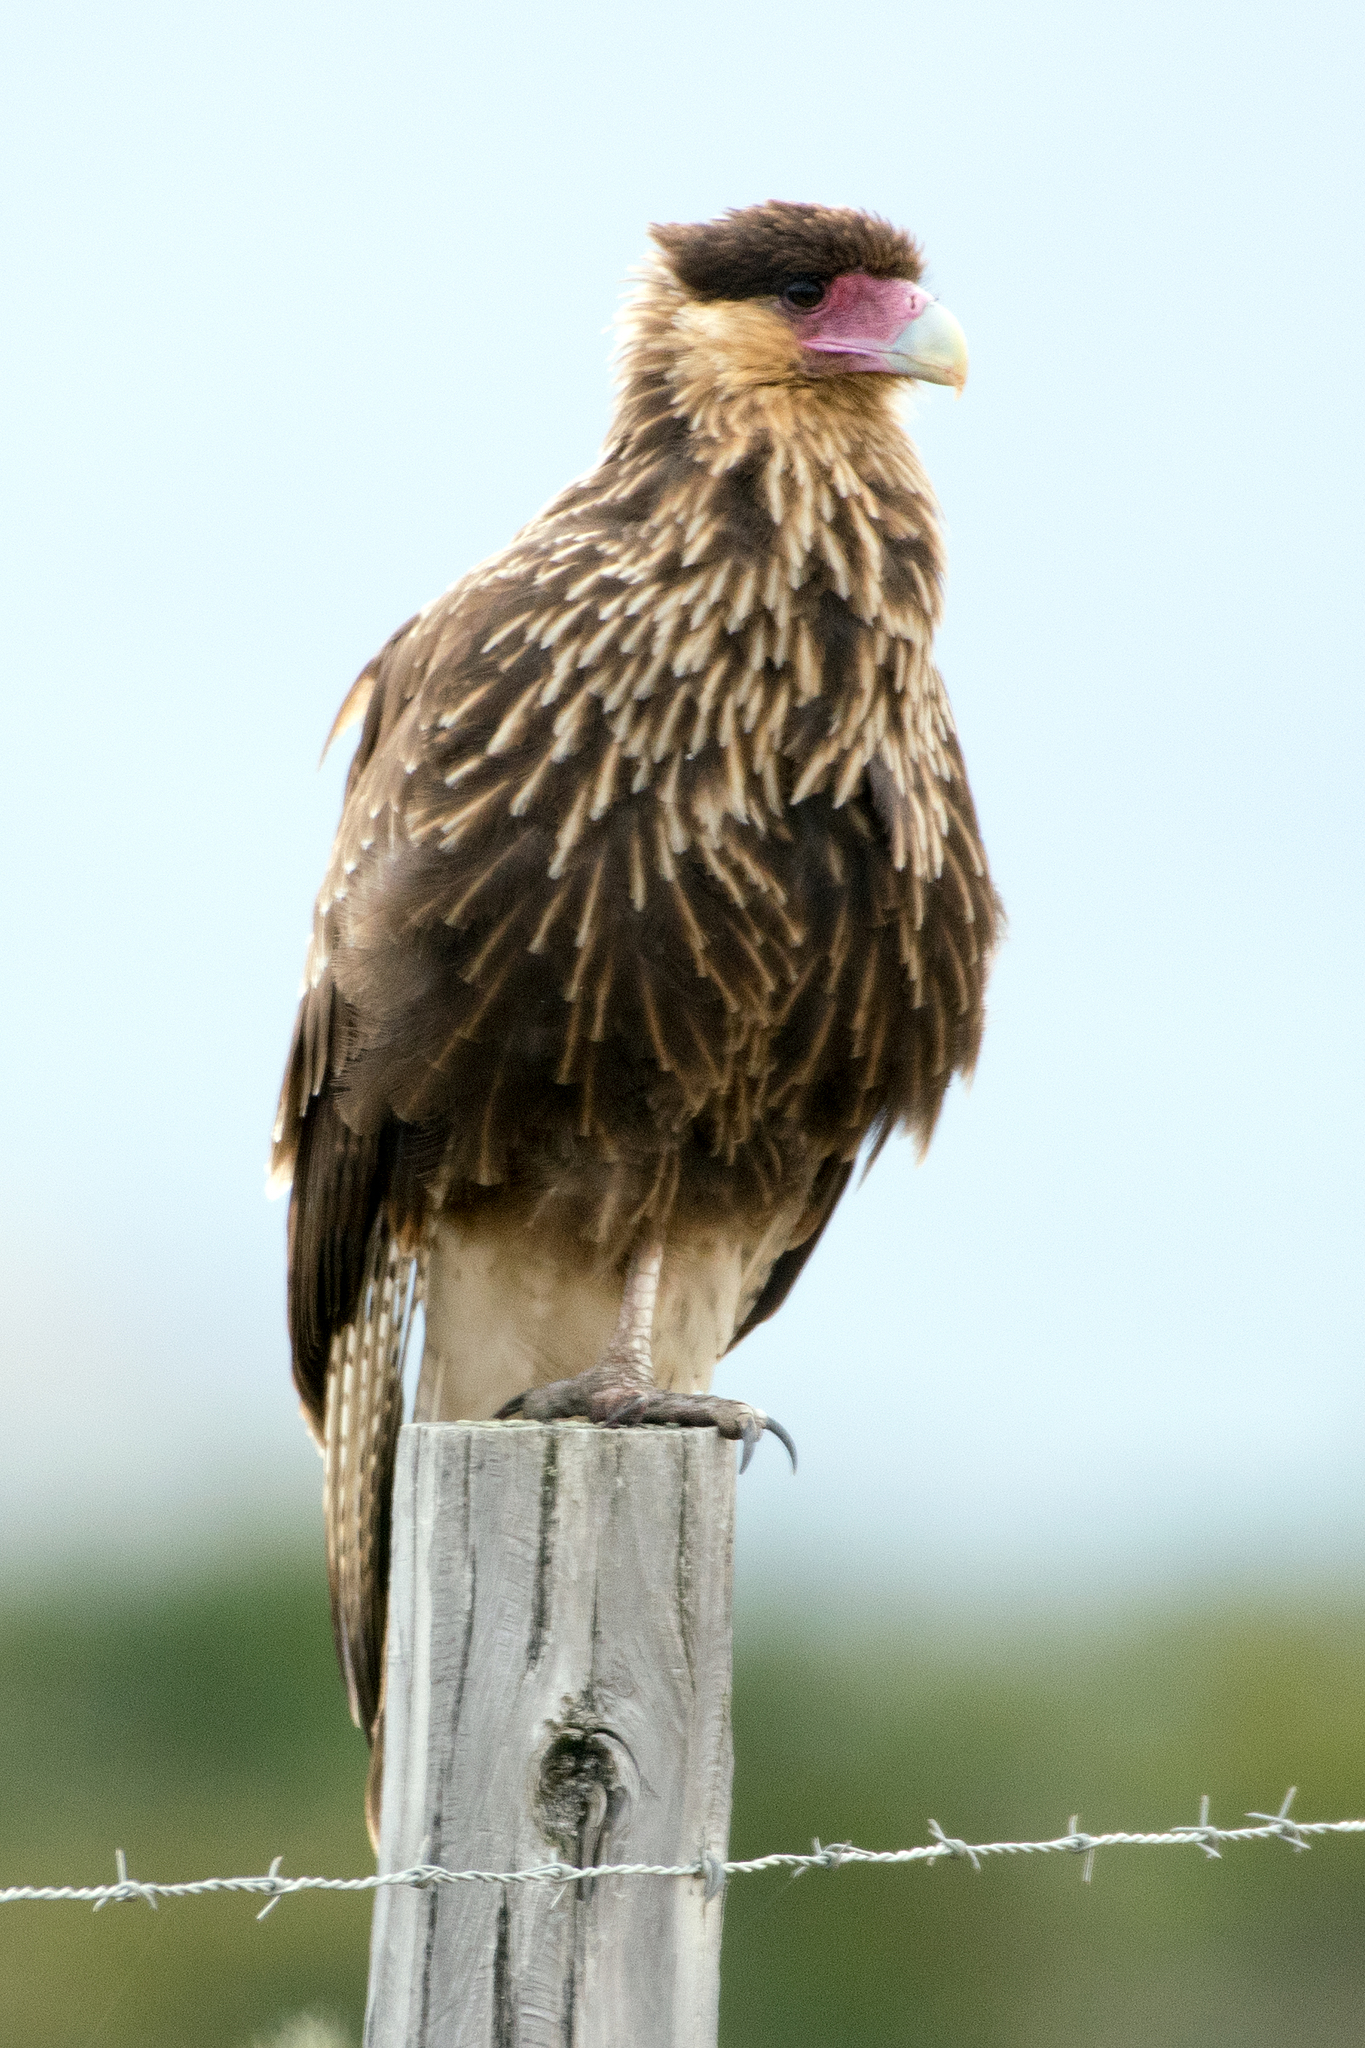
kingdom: Animalia
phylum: Chordata
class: Aves
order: Falconiformes
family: Falconidae
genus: Caracara
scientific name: Caracara plancus
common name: Southern caracara
